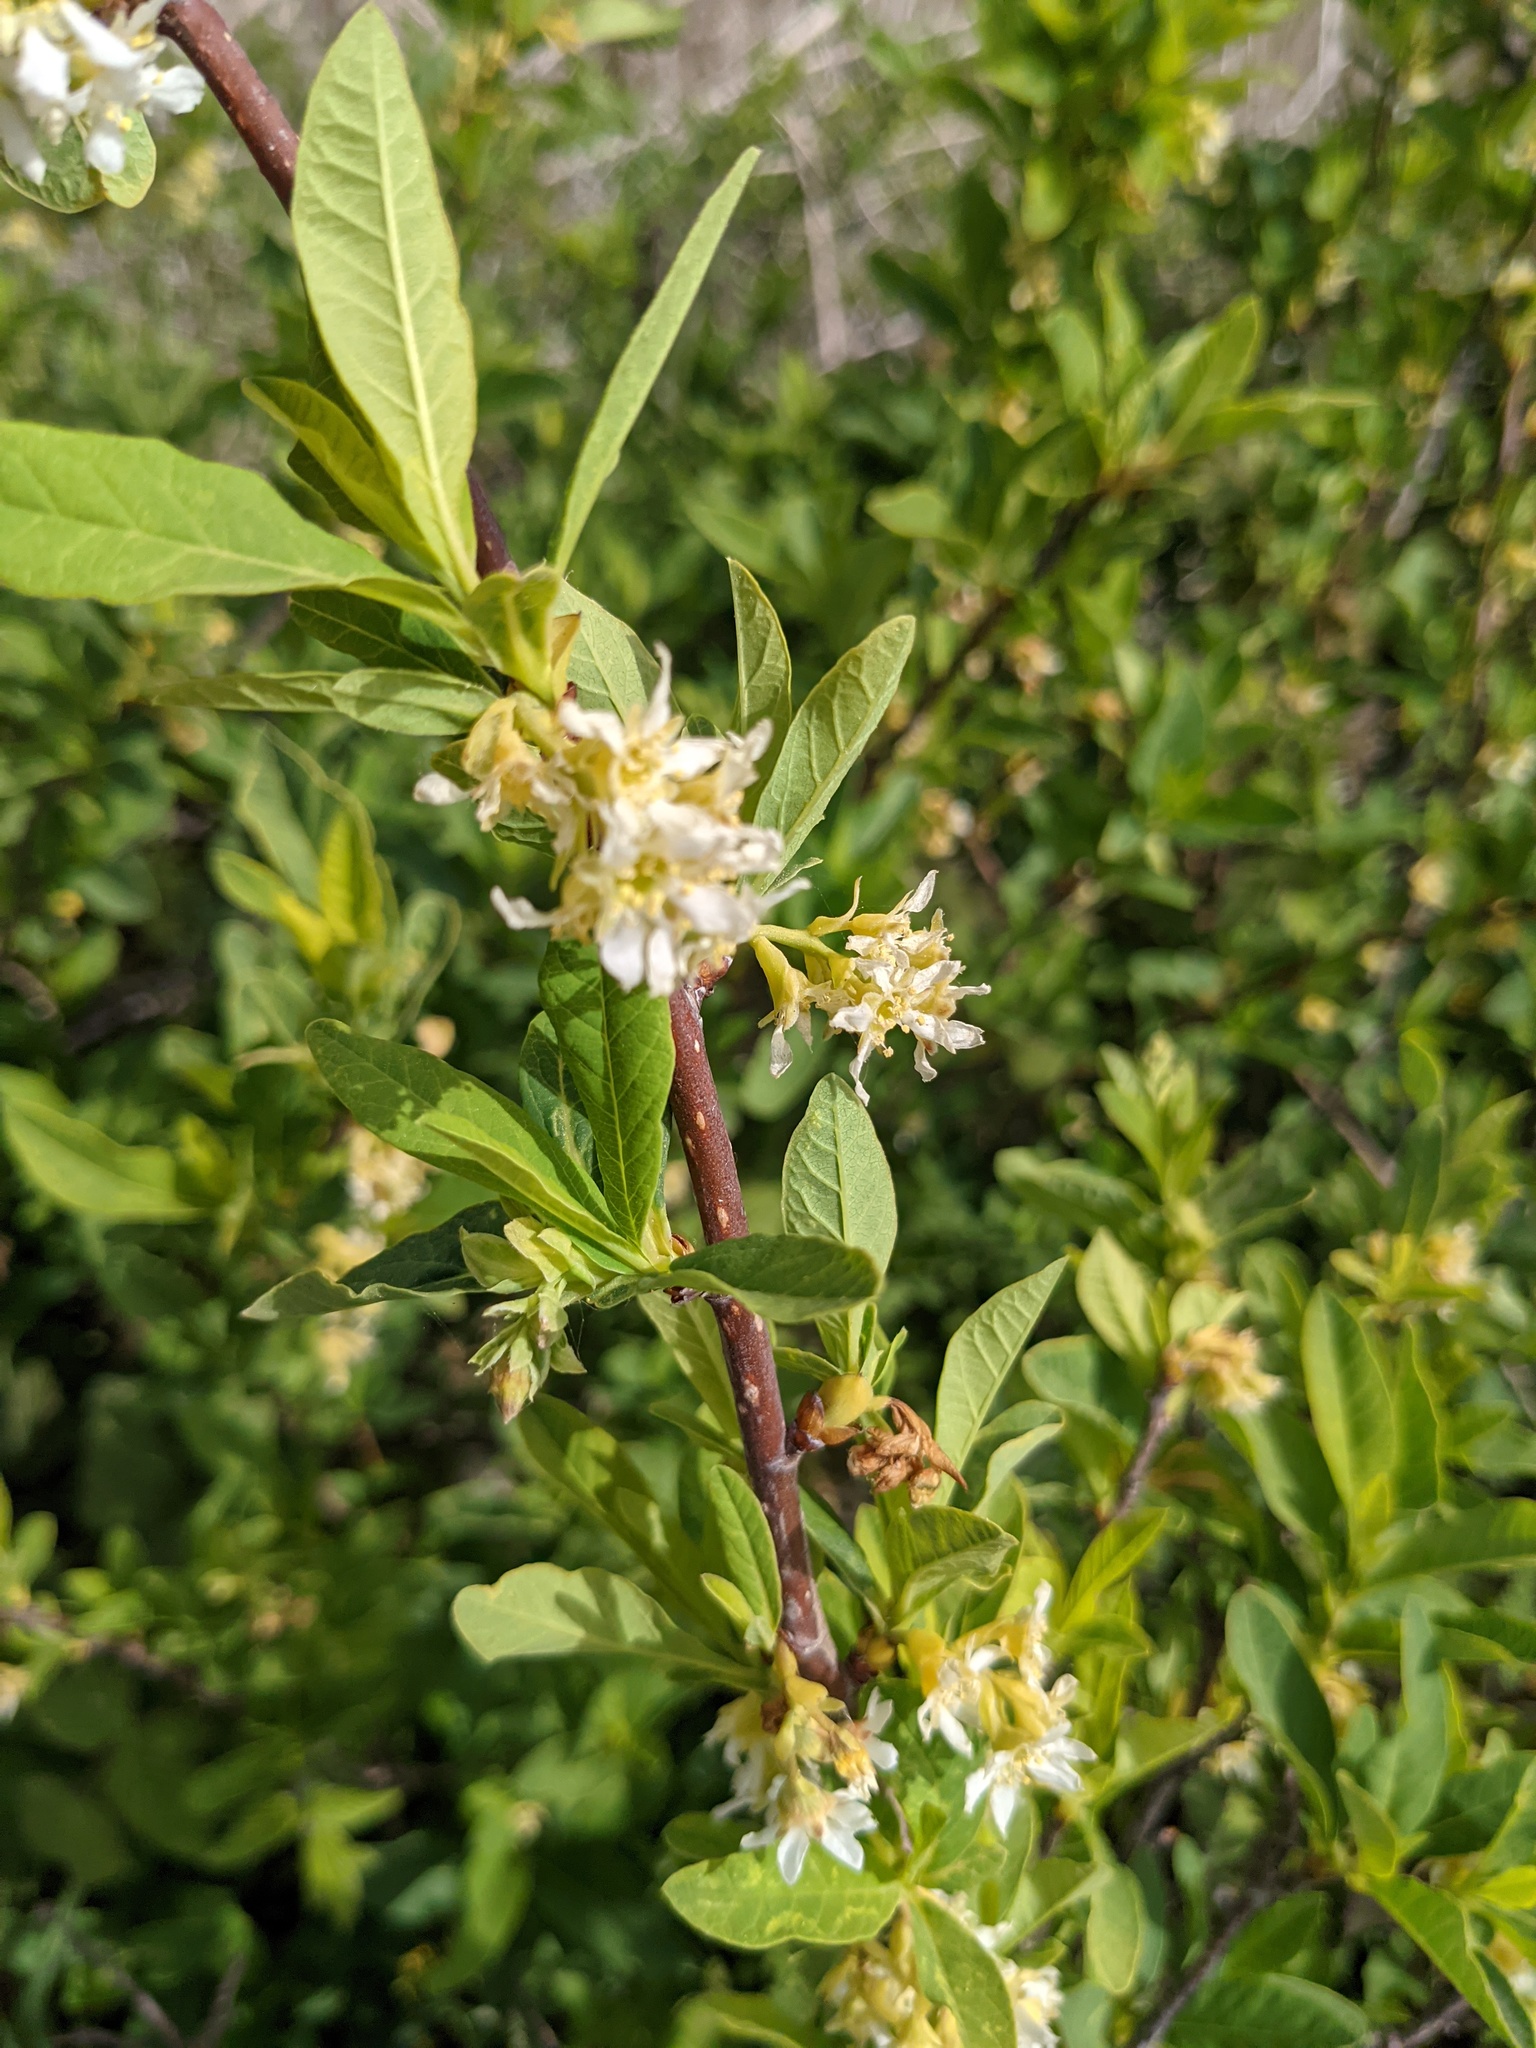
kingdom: Plantae
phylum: Tracheophyta
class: Magnoliopsida
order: Rosales
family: Rosaceae
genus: Oemleria
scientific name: Oemleria cerasiformis
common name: Osoberry
